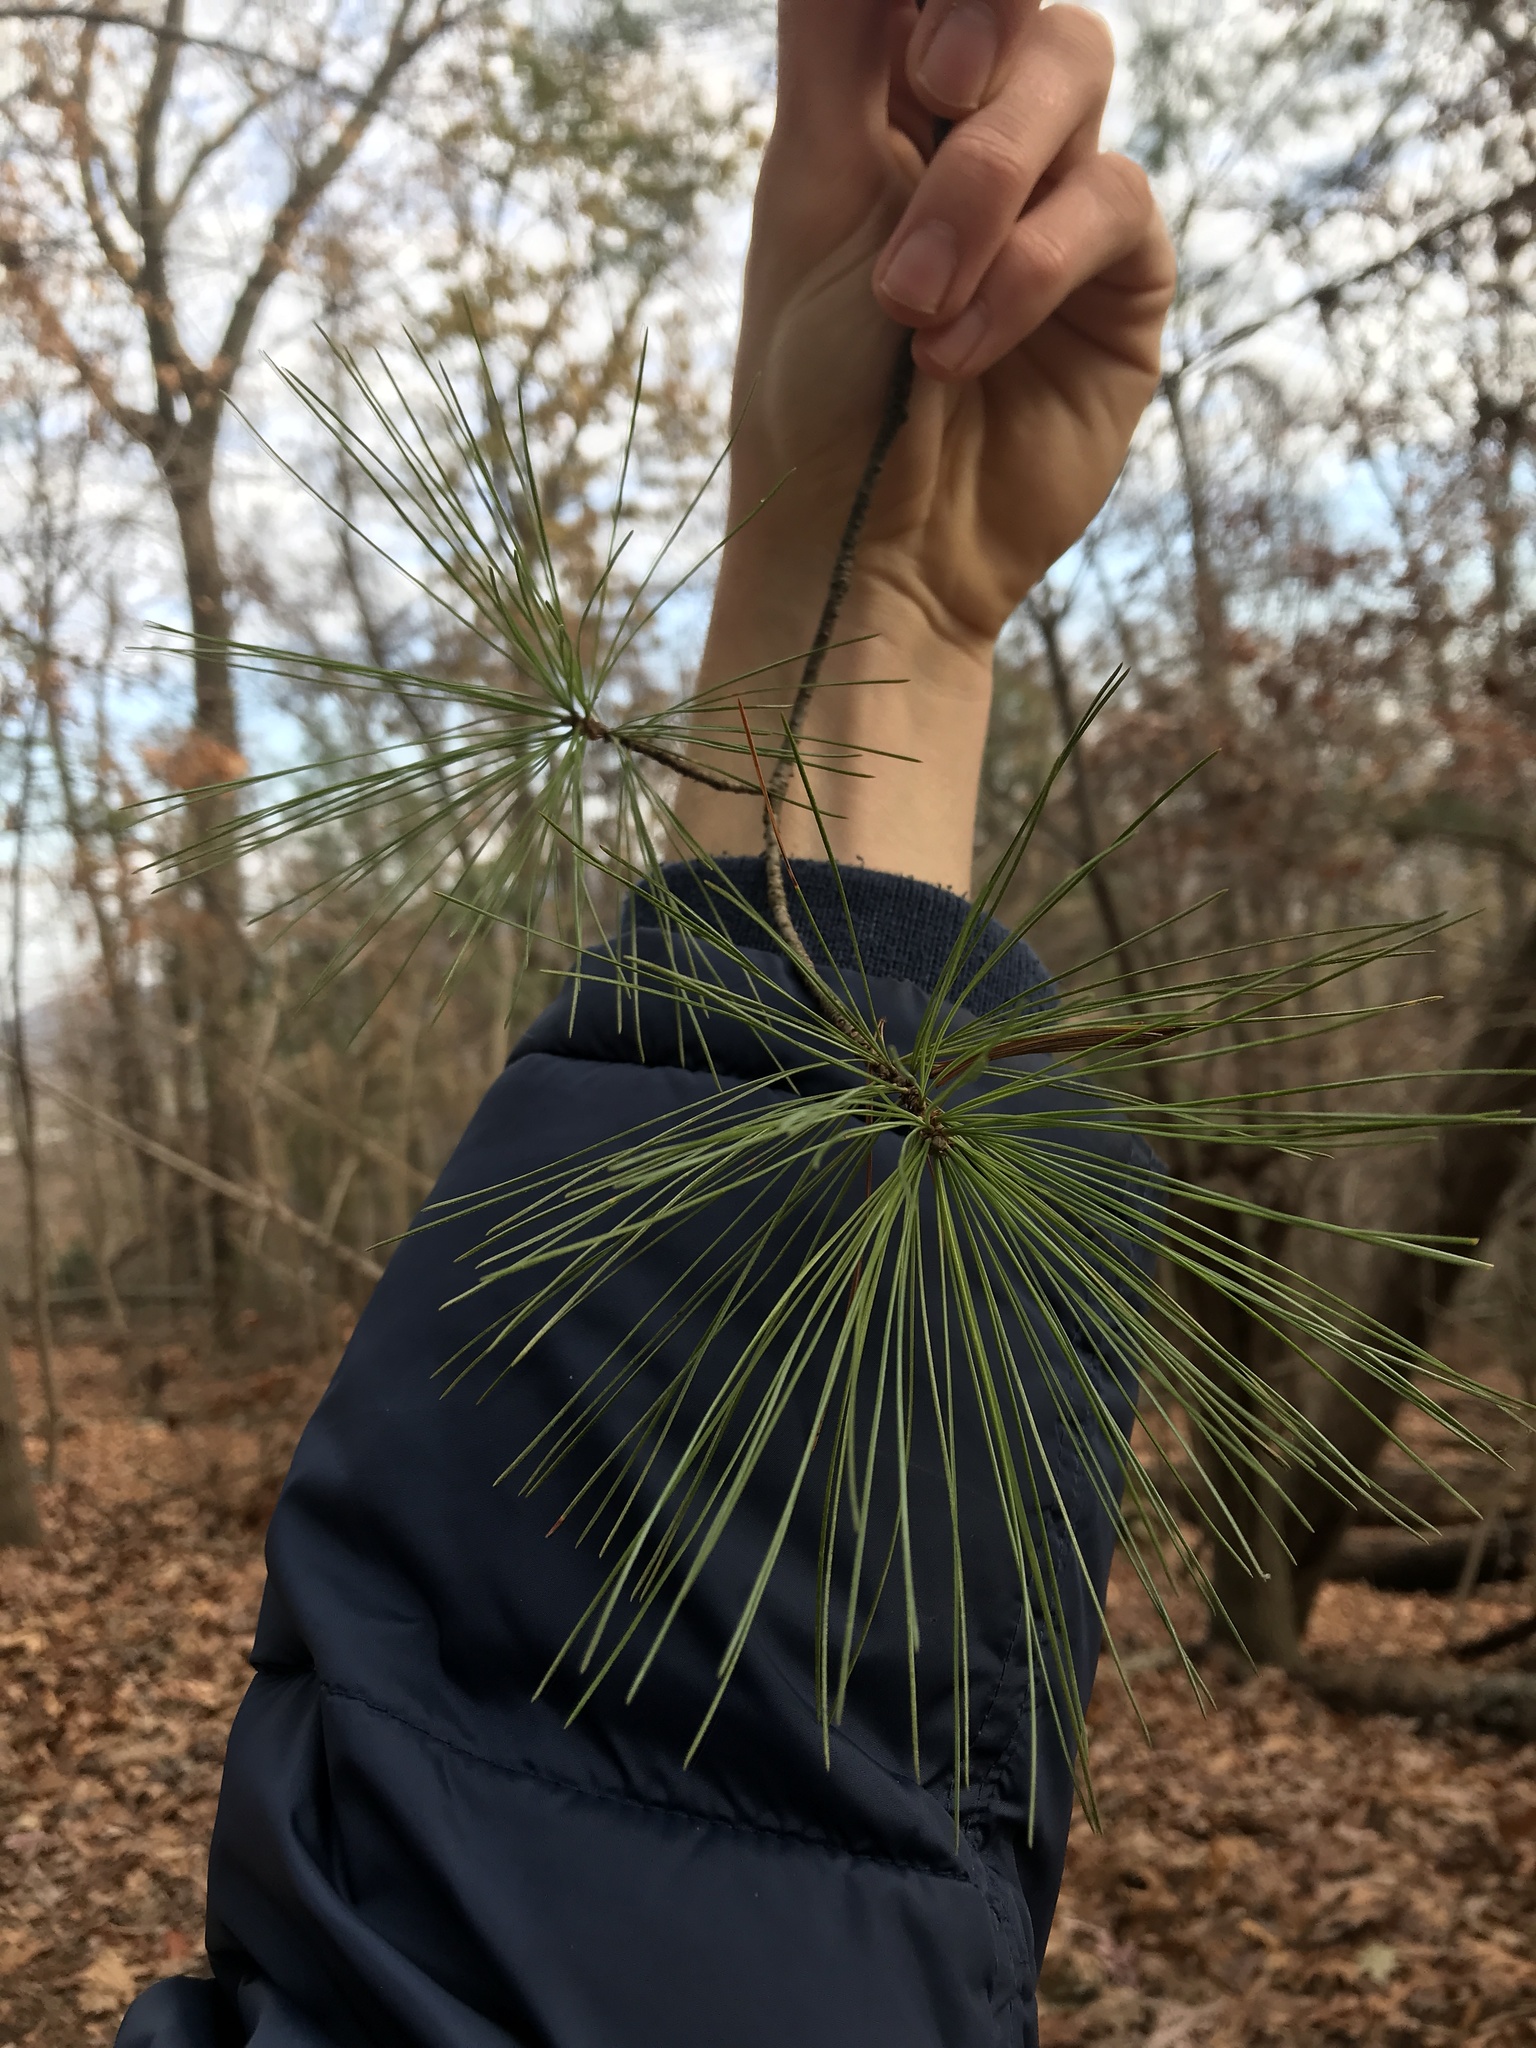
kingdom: Plantae
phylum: Tracheophyta
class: Pinopsida
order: Pinales
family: Pinaceae
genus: Pinus
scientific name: Pinus strobus
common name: Weymouth pine
